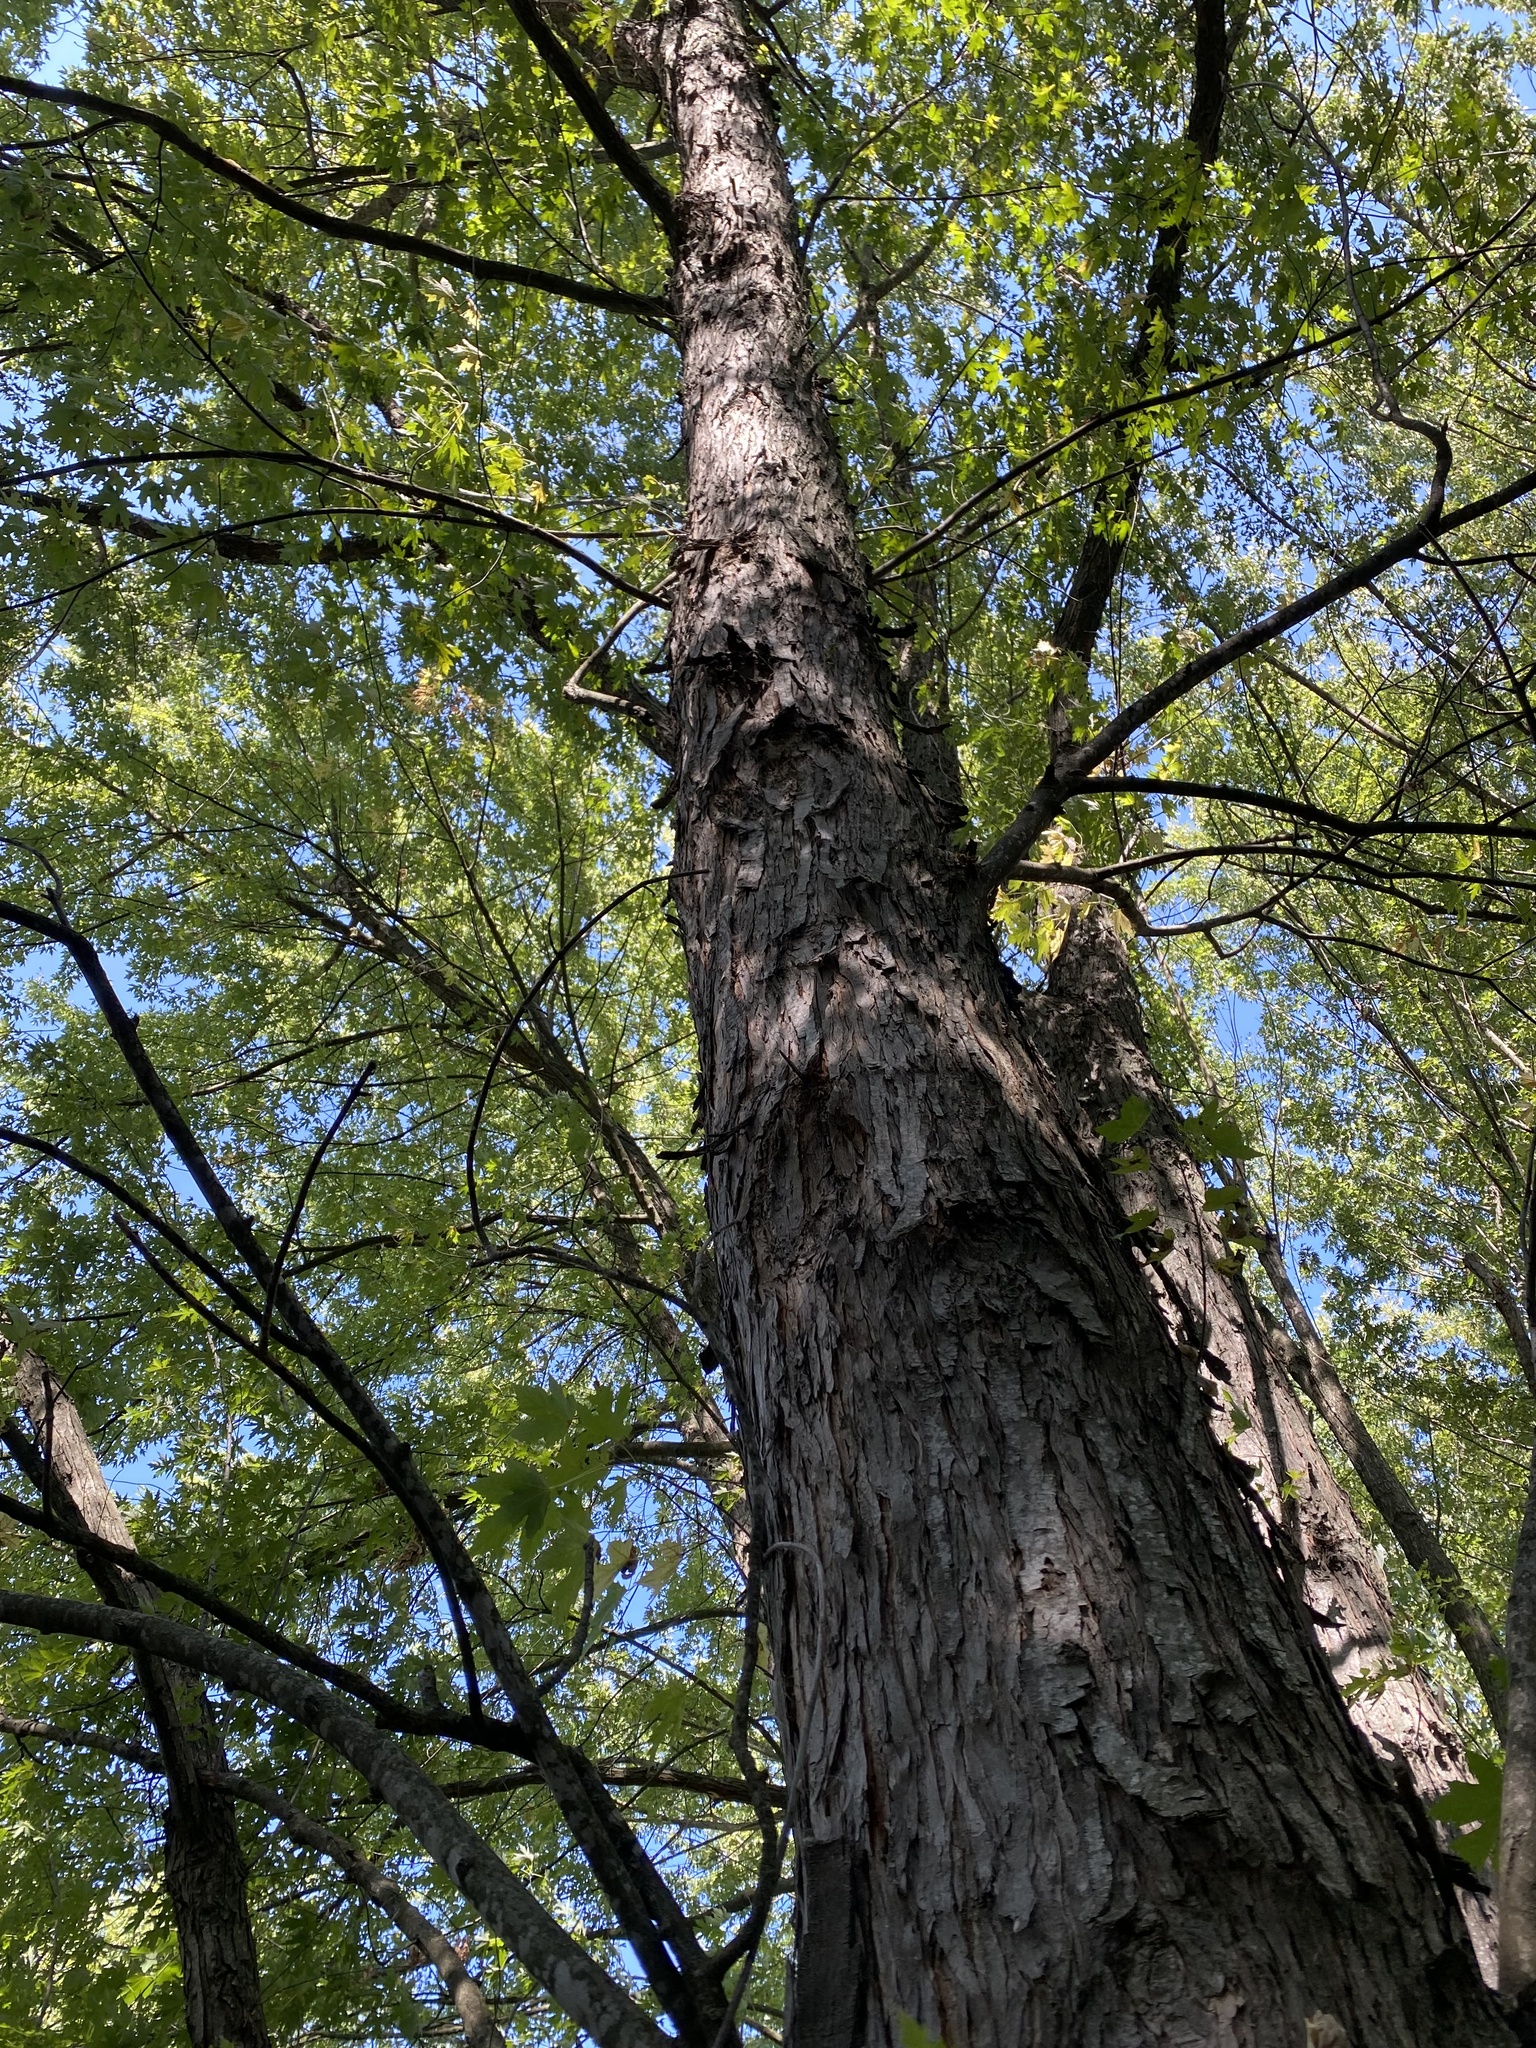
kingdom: Plantae
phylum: Tracheophyta
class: Magnoliopsida
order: Sapindales
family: Sapindaceae
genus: Acer
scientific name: Acer saccharinum
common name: Silver maple
